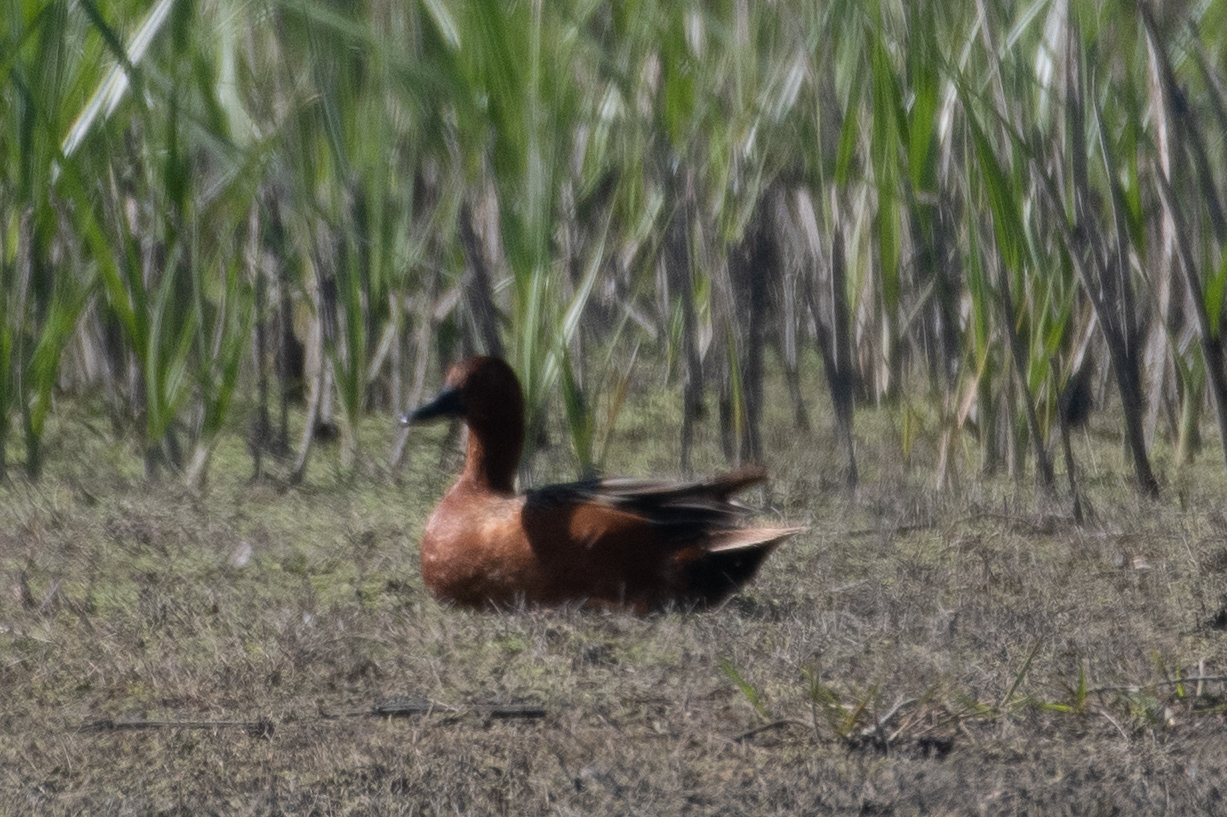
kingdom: Animalia
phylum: Chordata
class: Aves
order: Anseriformes
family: Anatidae
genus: Spatula
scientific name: Spatula cyanoptera
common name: Cinnamon teal
